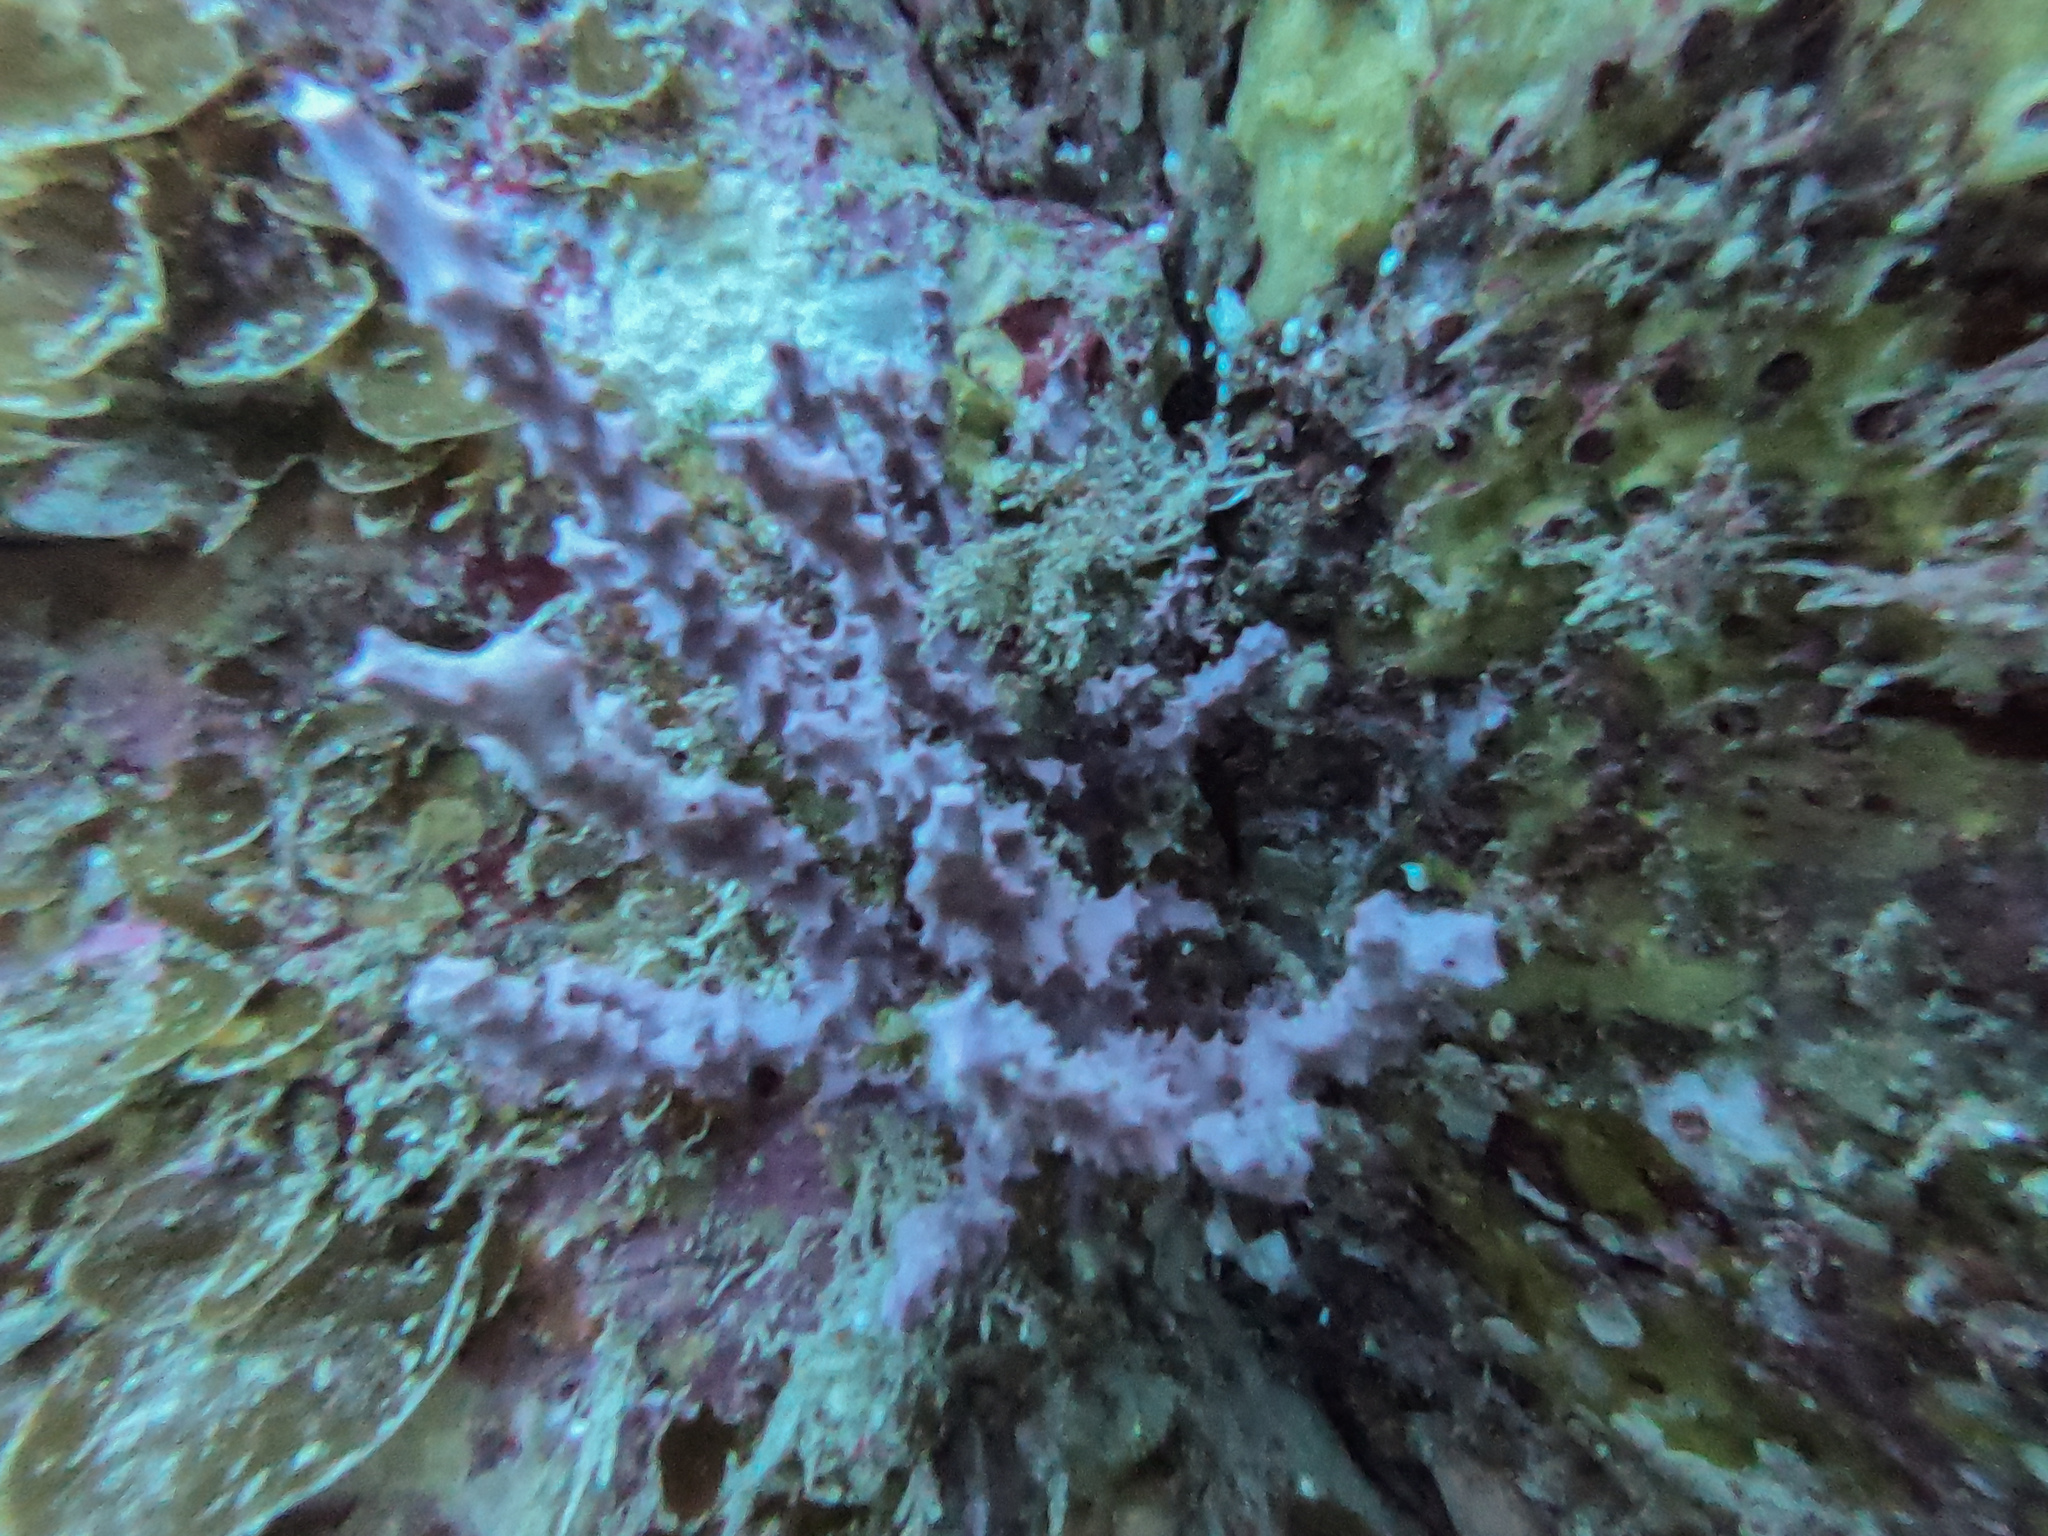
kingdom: Animalia
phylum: Porifera
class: Demospongiae
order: Dendroceratida
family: Darwinellidae
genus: Darwinella
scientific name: Darwinella gardineri
